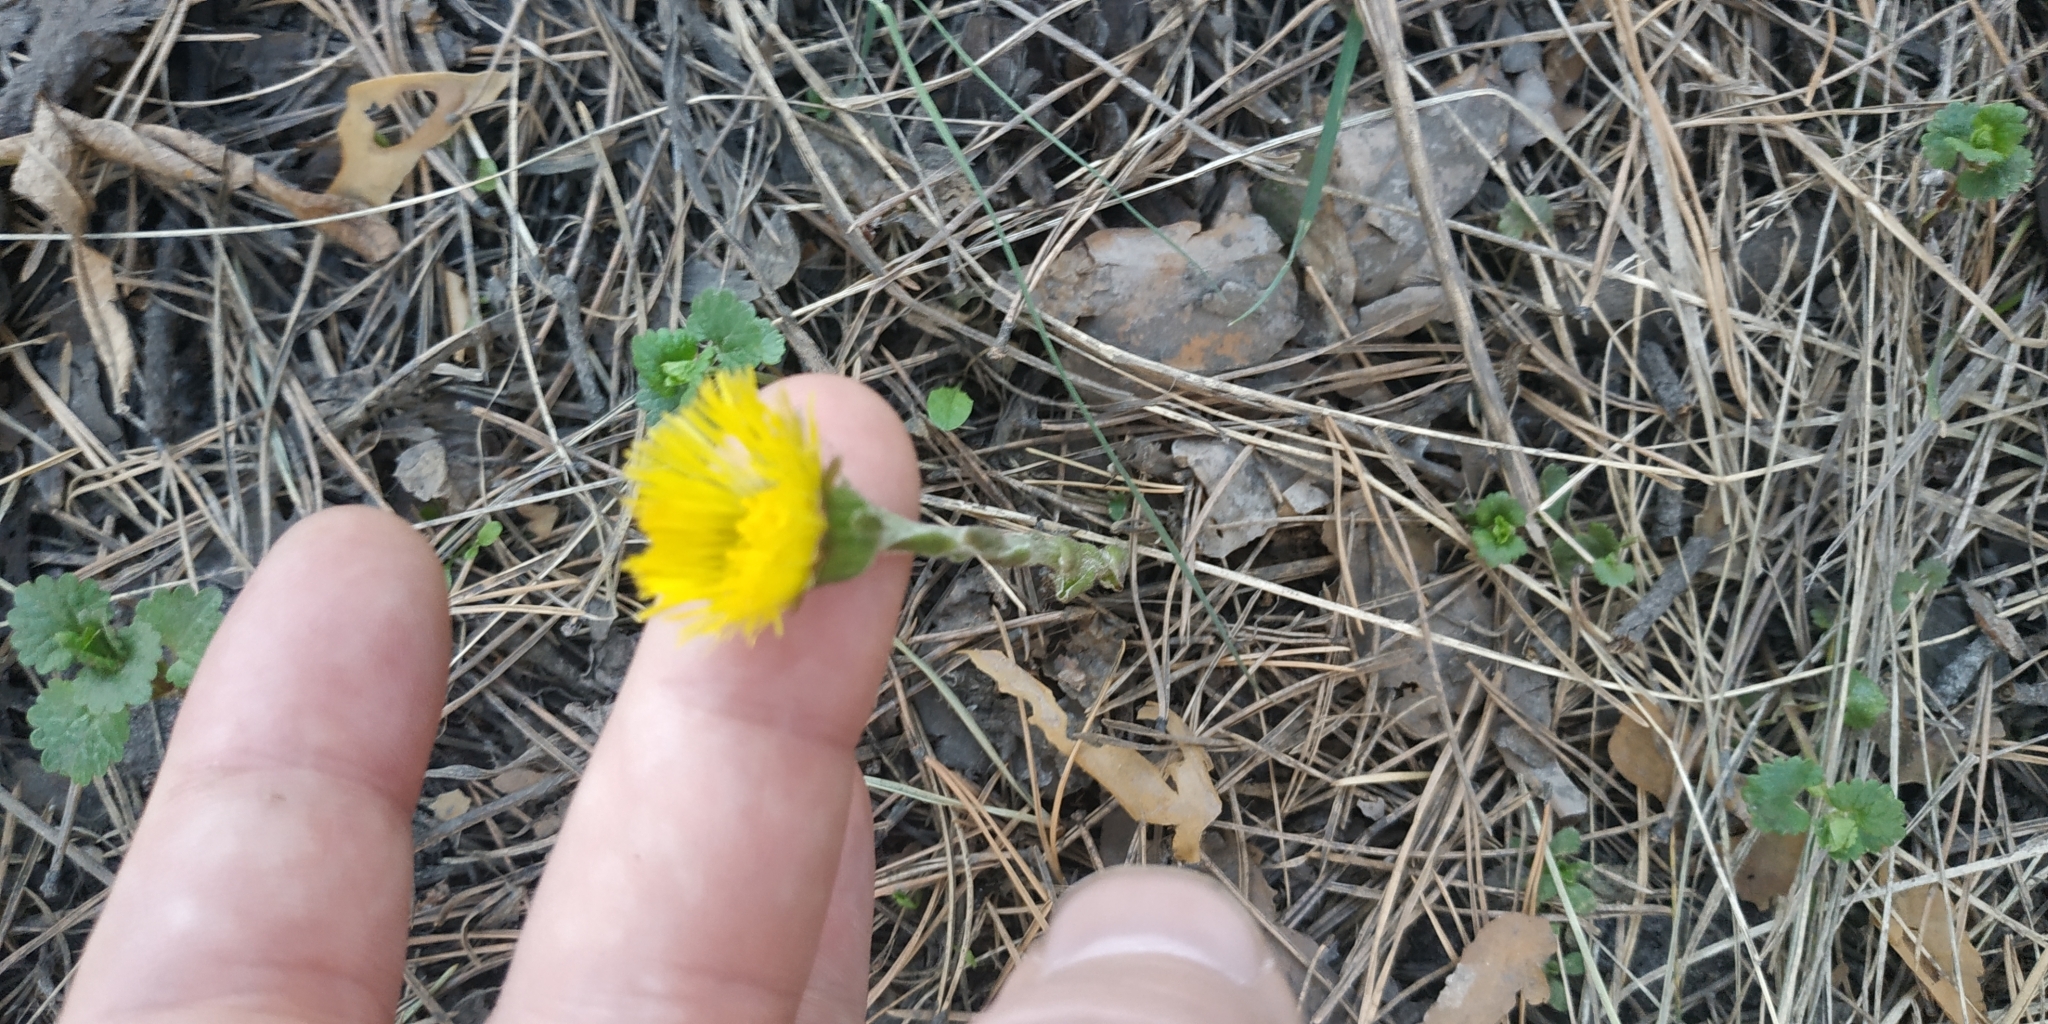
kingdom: Plantae
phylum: Tracheophyta
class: Magnoliopsida
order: Asterales
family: Asteraceae
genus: Tussilago
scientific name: Tussilago farfara
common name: Coltsfoot
